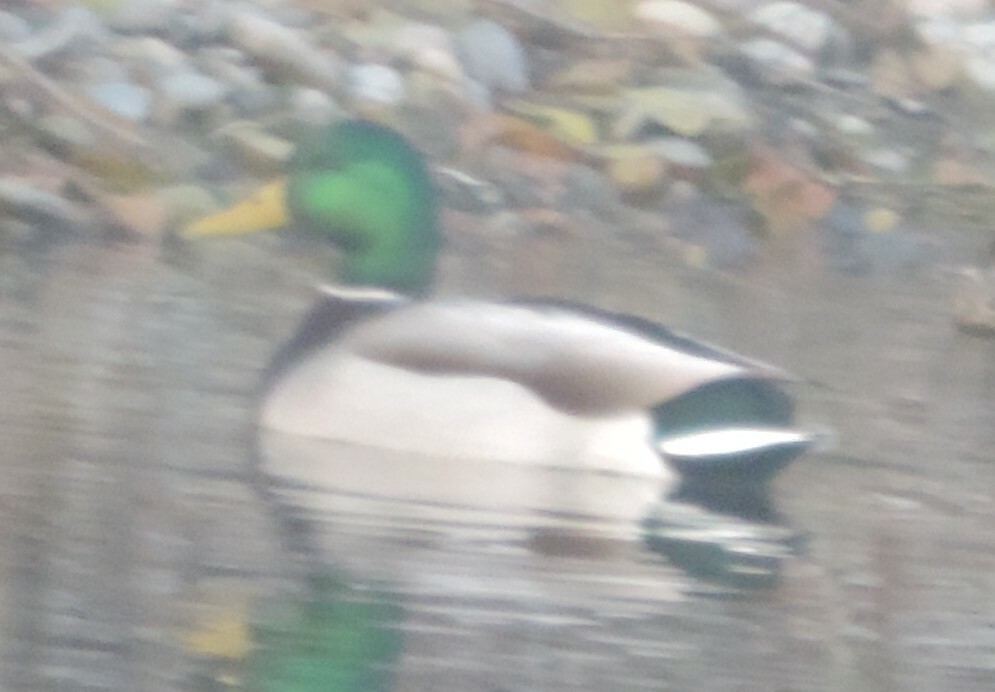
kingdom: Animalia
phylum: Chordata
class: Aves
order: Anseriformes
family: Anatidae
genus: Anas
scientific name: Anas platyrhynchos
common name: Mallard
